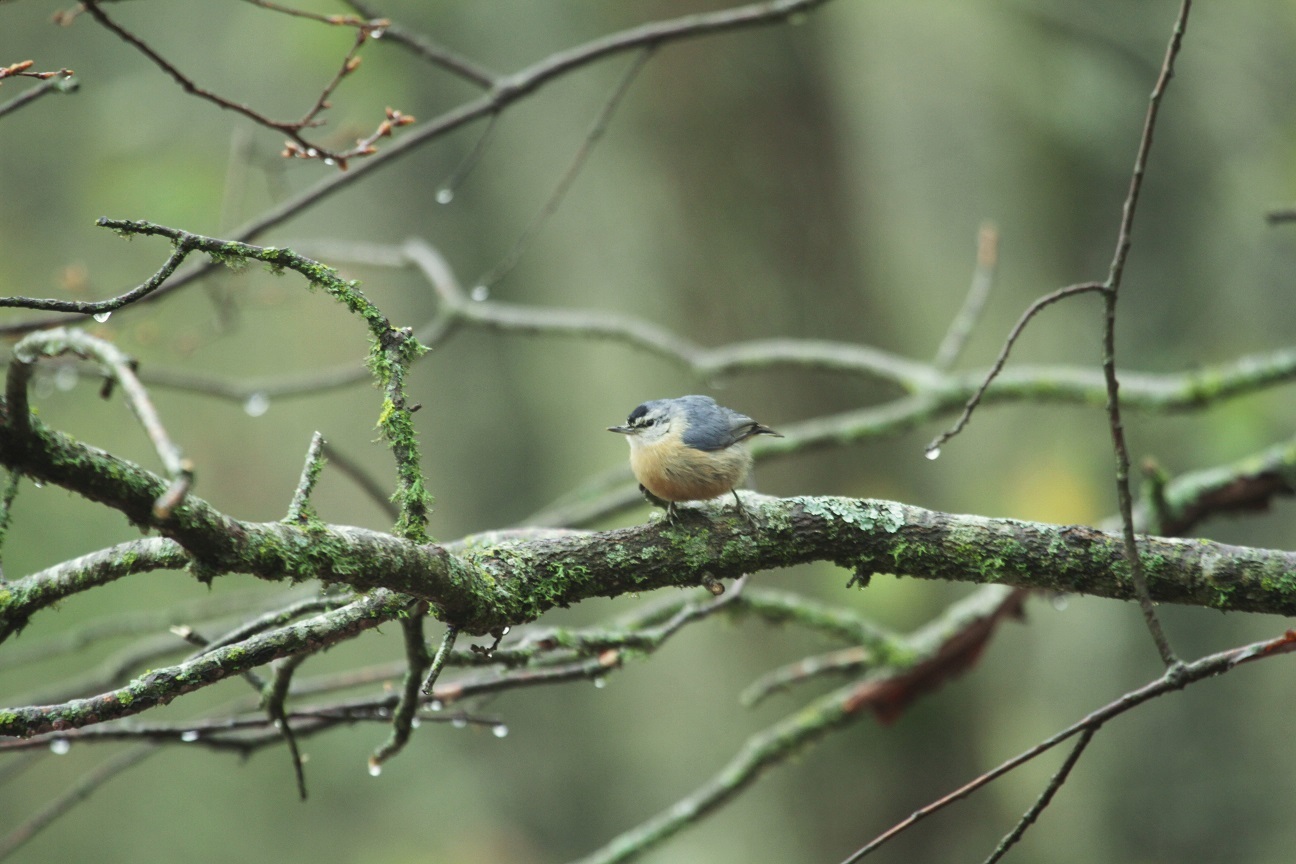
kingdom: Animalia
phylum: Chordata
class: Aves
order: Passeriformes
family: Sittidae
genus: Sitta
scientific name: Sitta ledanti
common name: Algerian nuthatch
